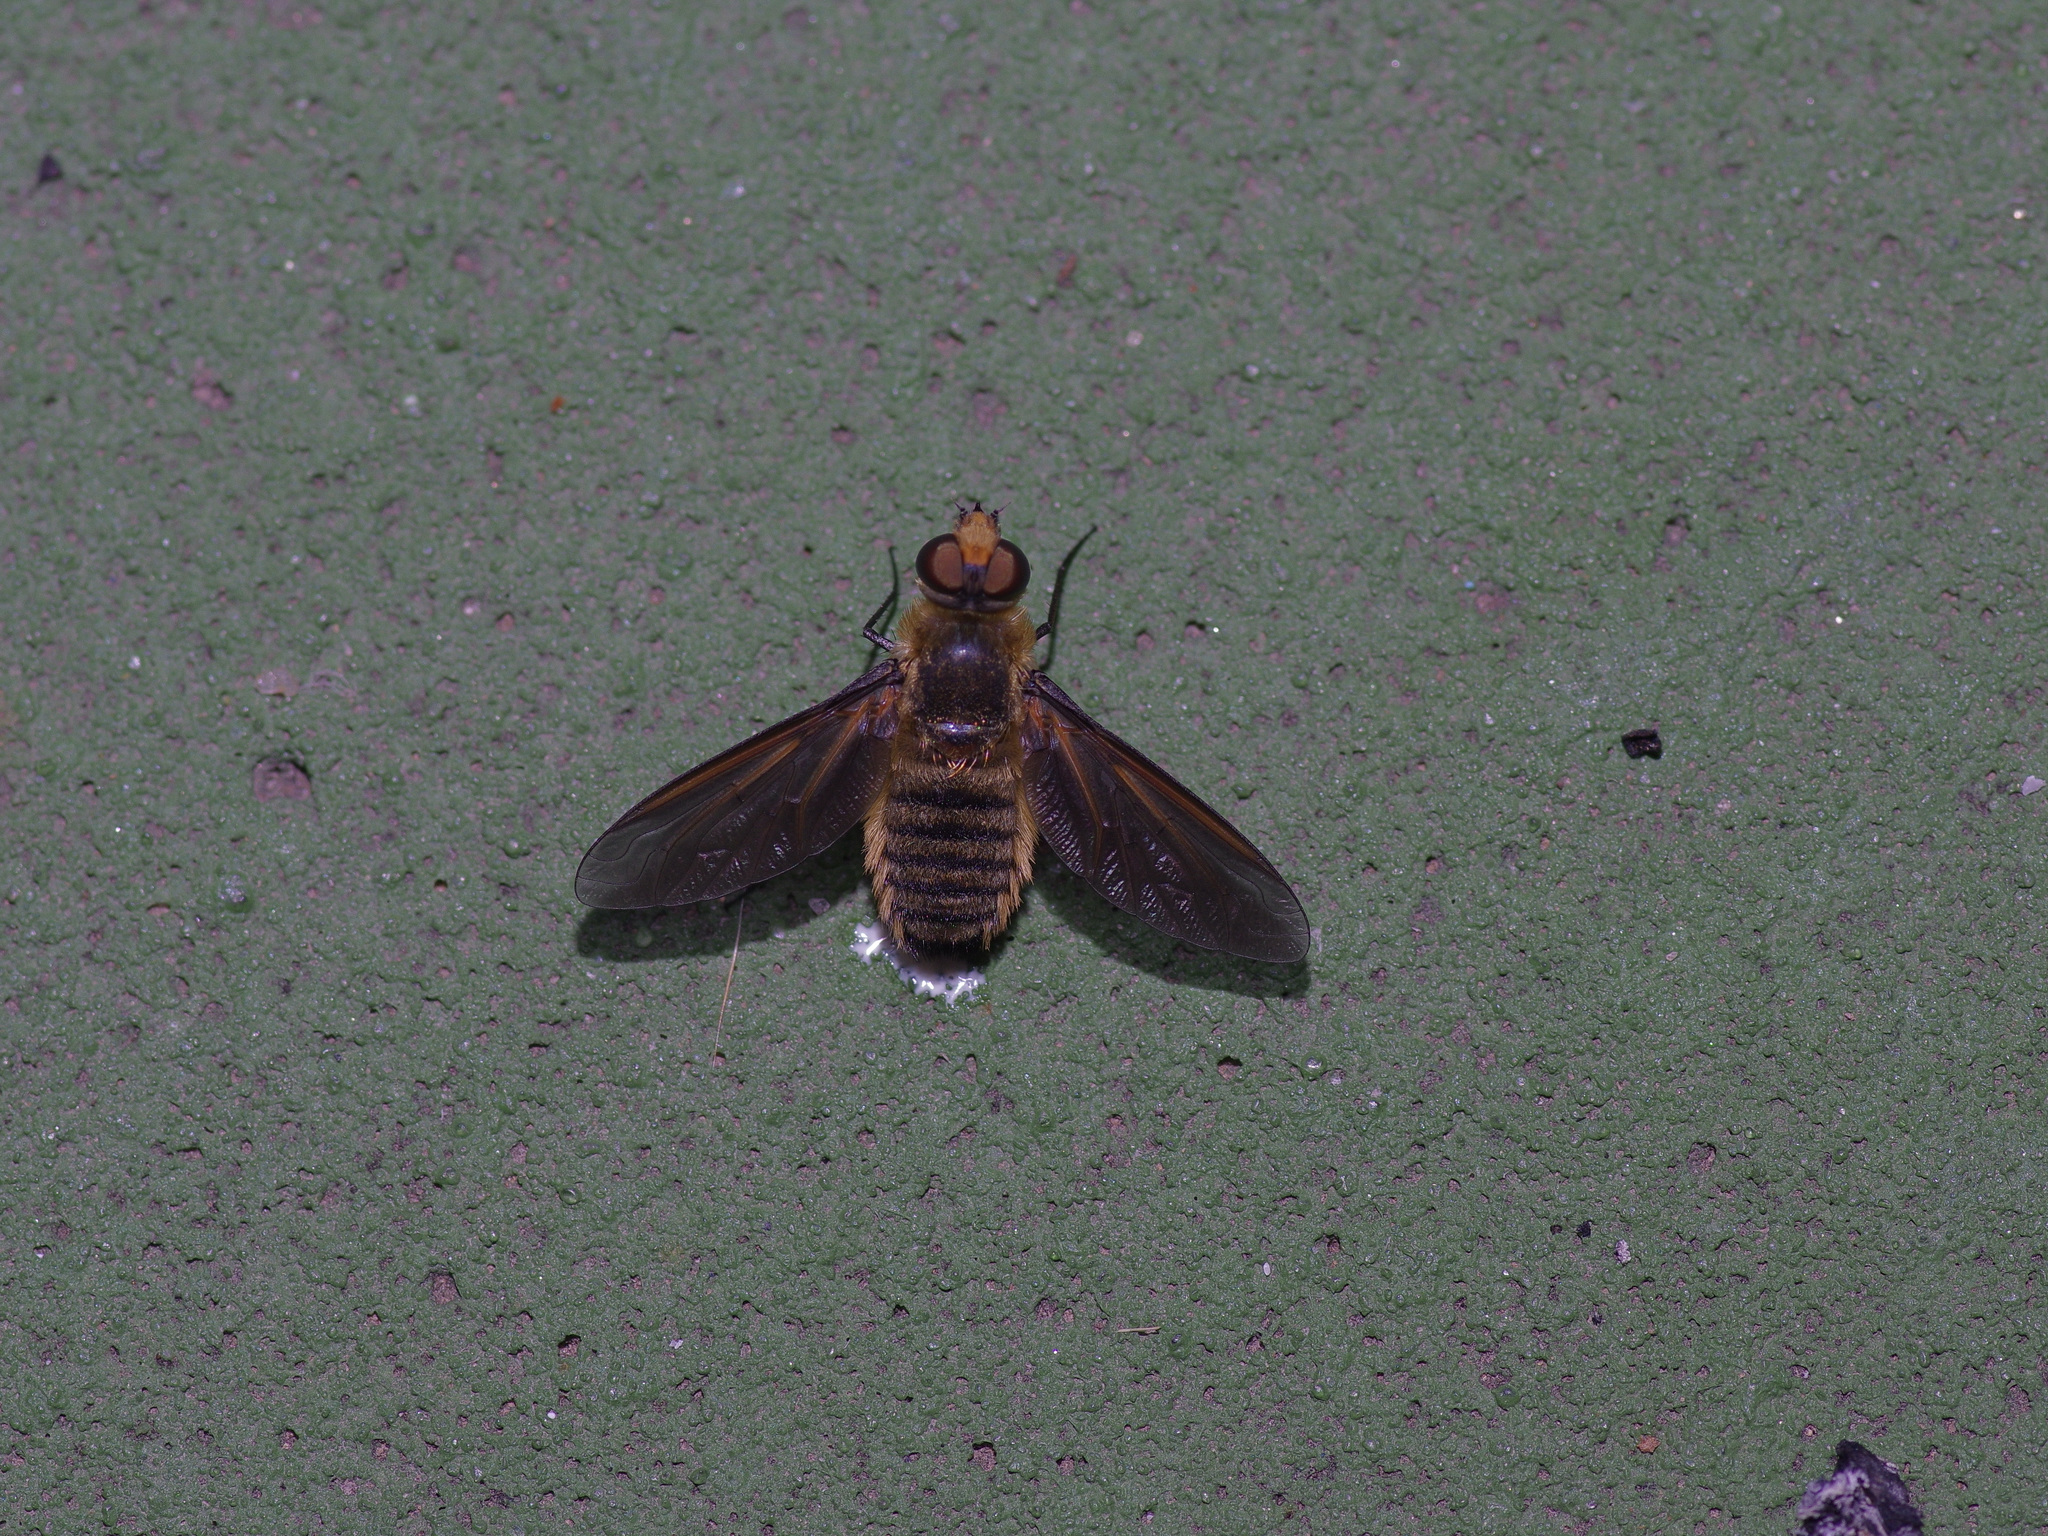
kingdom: Animalia
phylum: Arthropoda
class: Insecta
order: Diptera
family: Bombyliidae
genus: Poecilanthrax
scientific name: Poecilanthrax lucifer
